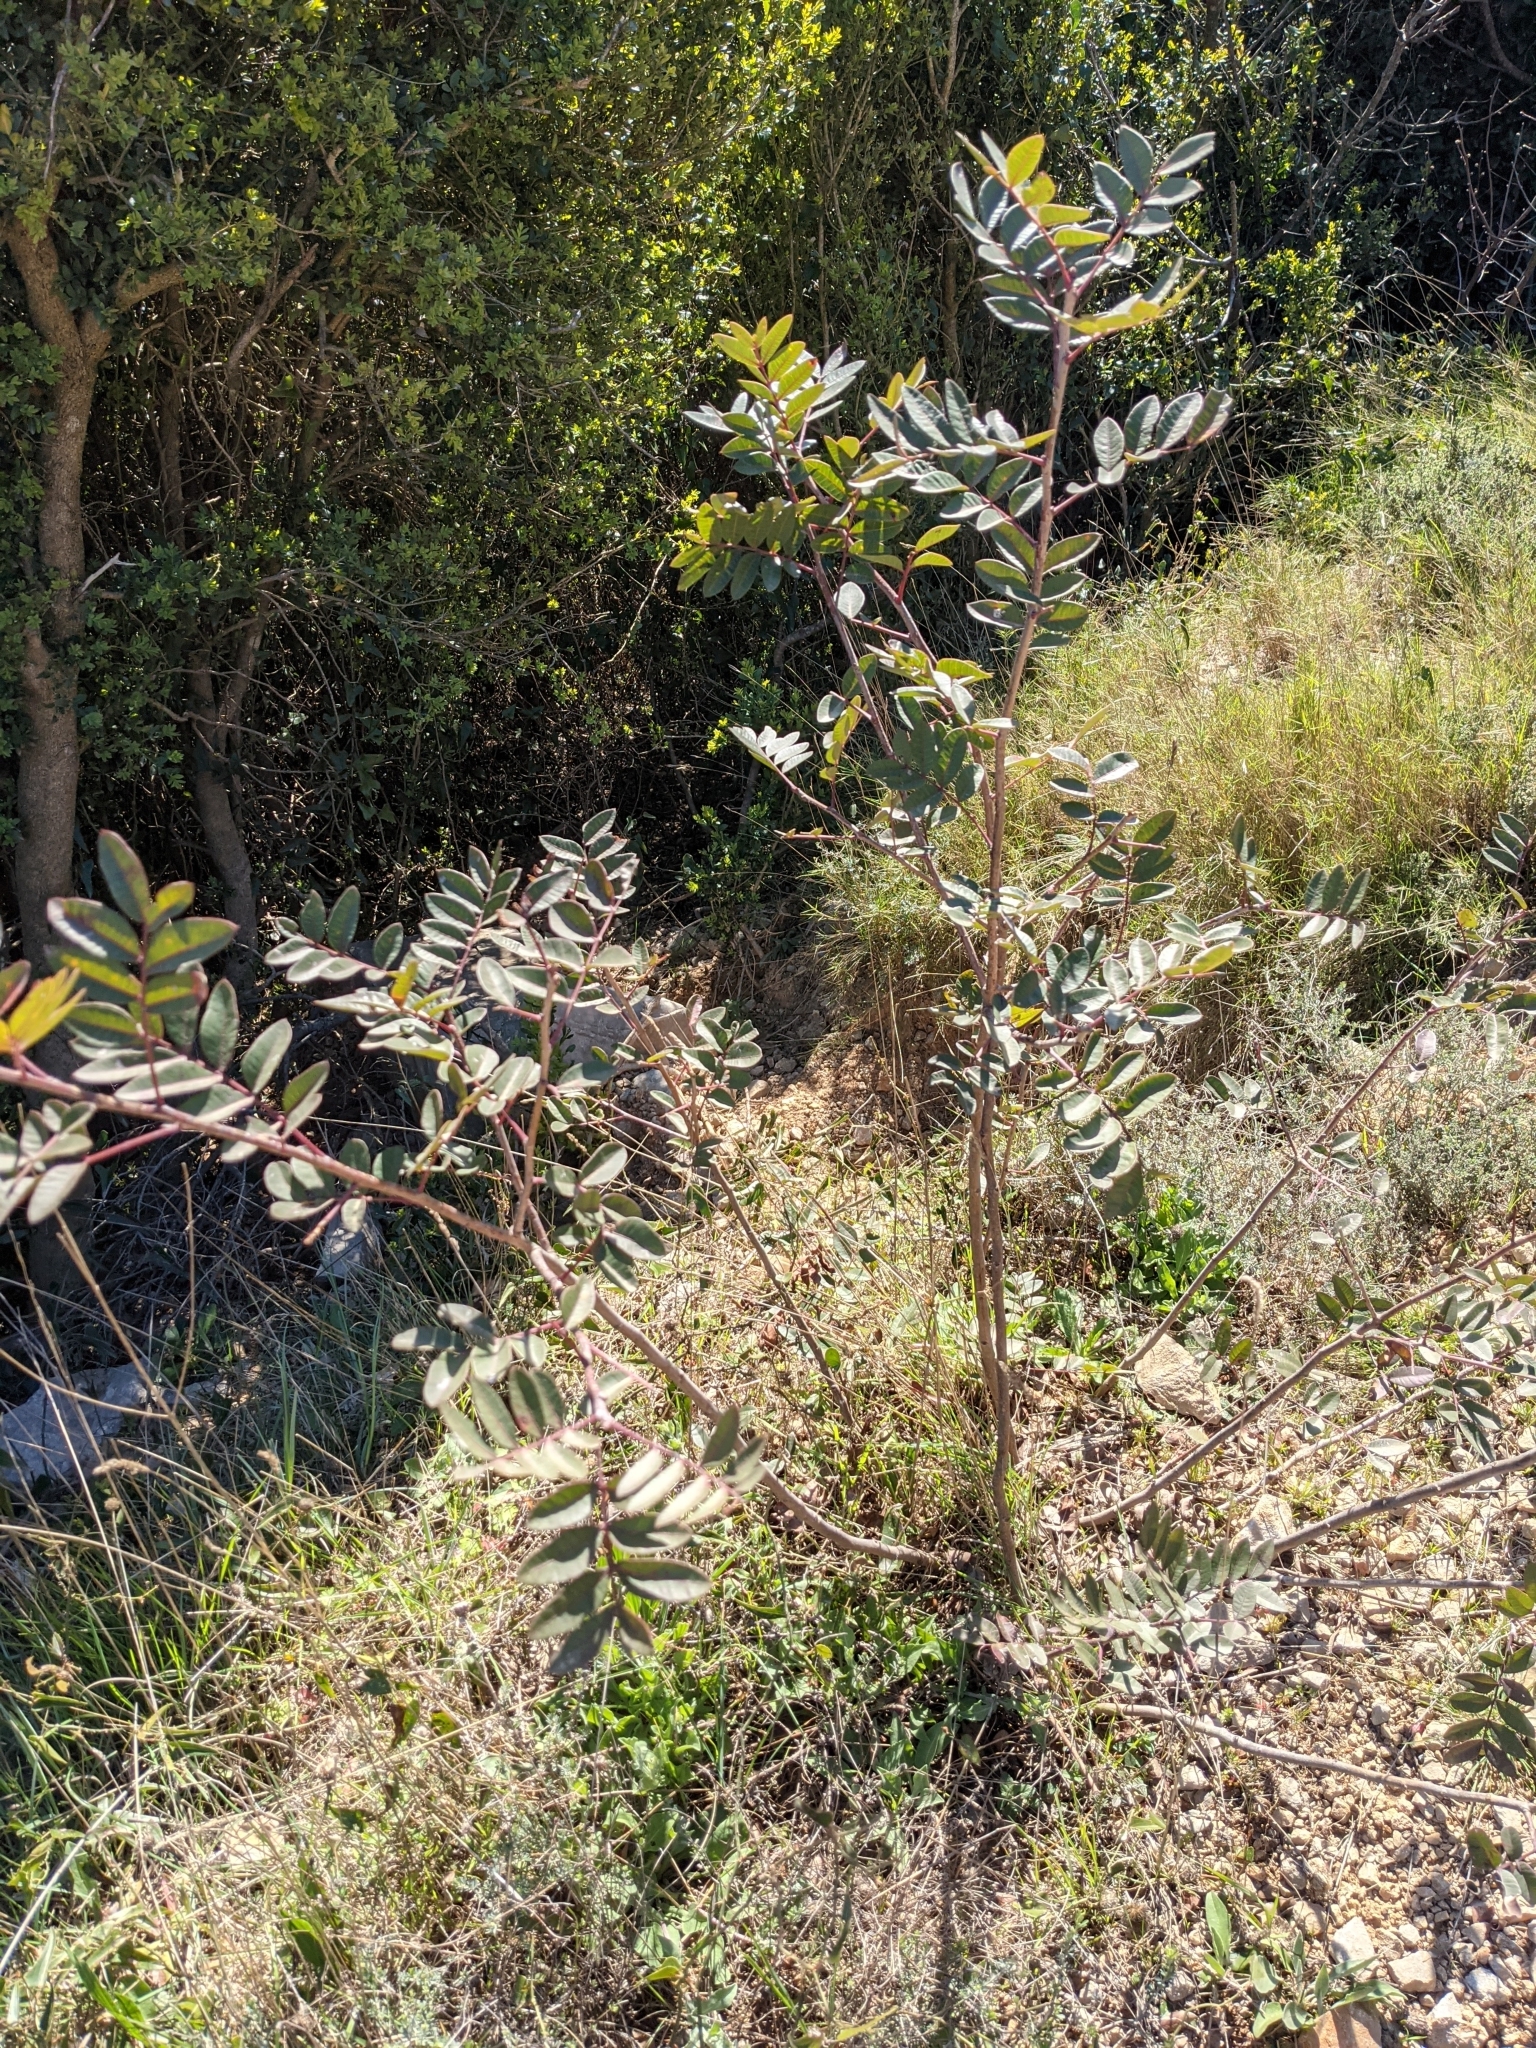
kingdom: Plantae
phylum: Tracheophyta
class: Magnoliopsida
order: Sapindales
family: Anacardiaceae
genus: Pistacia
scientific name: Pistacia saportae
